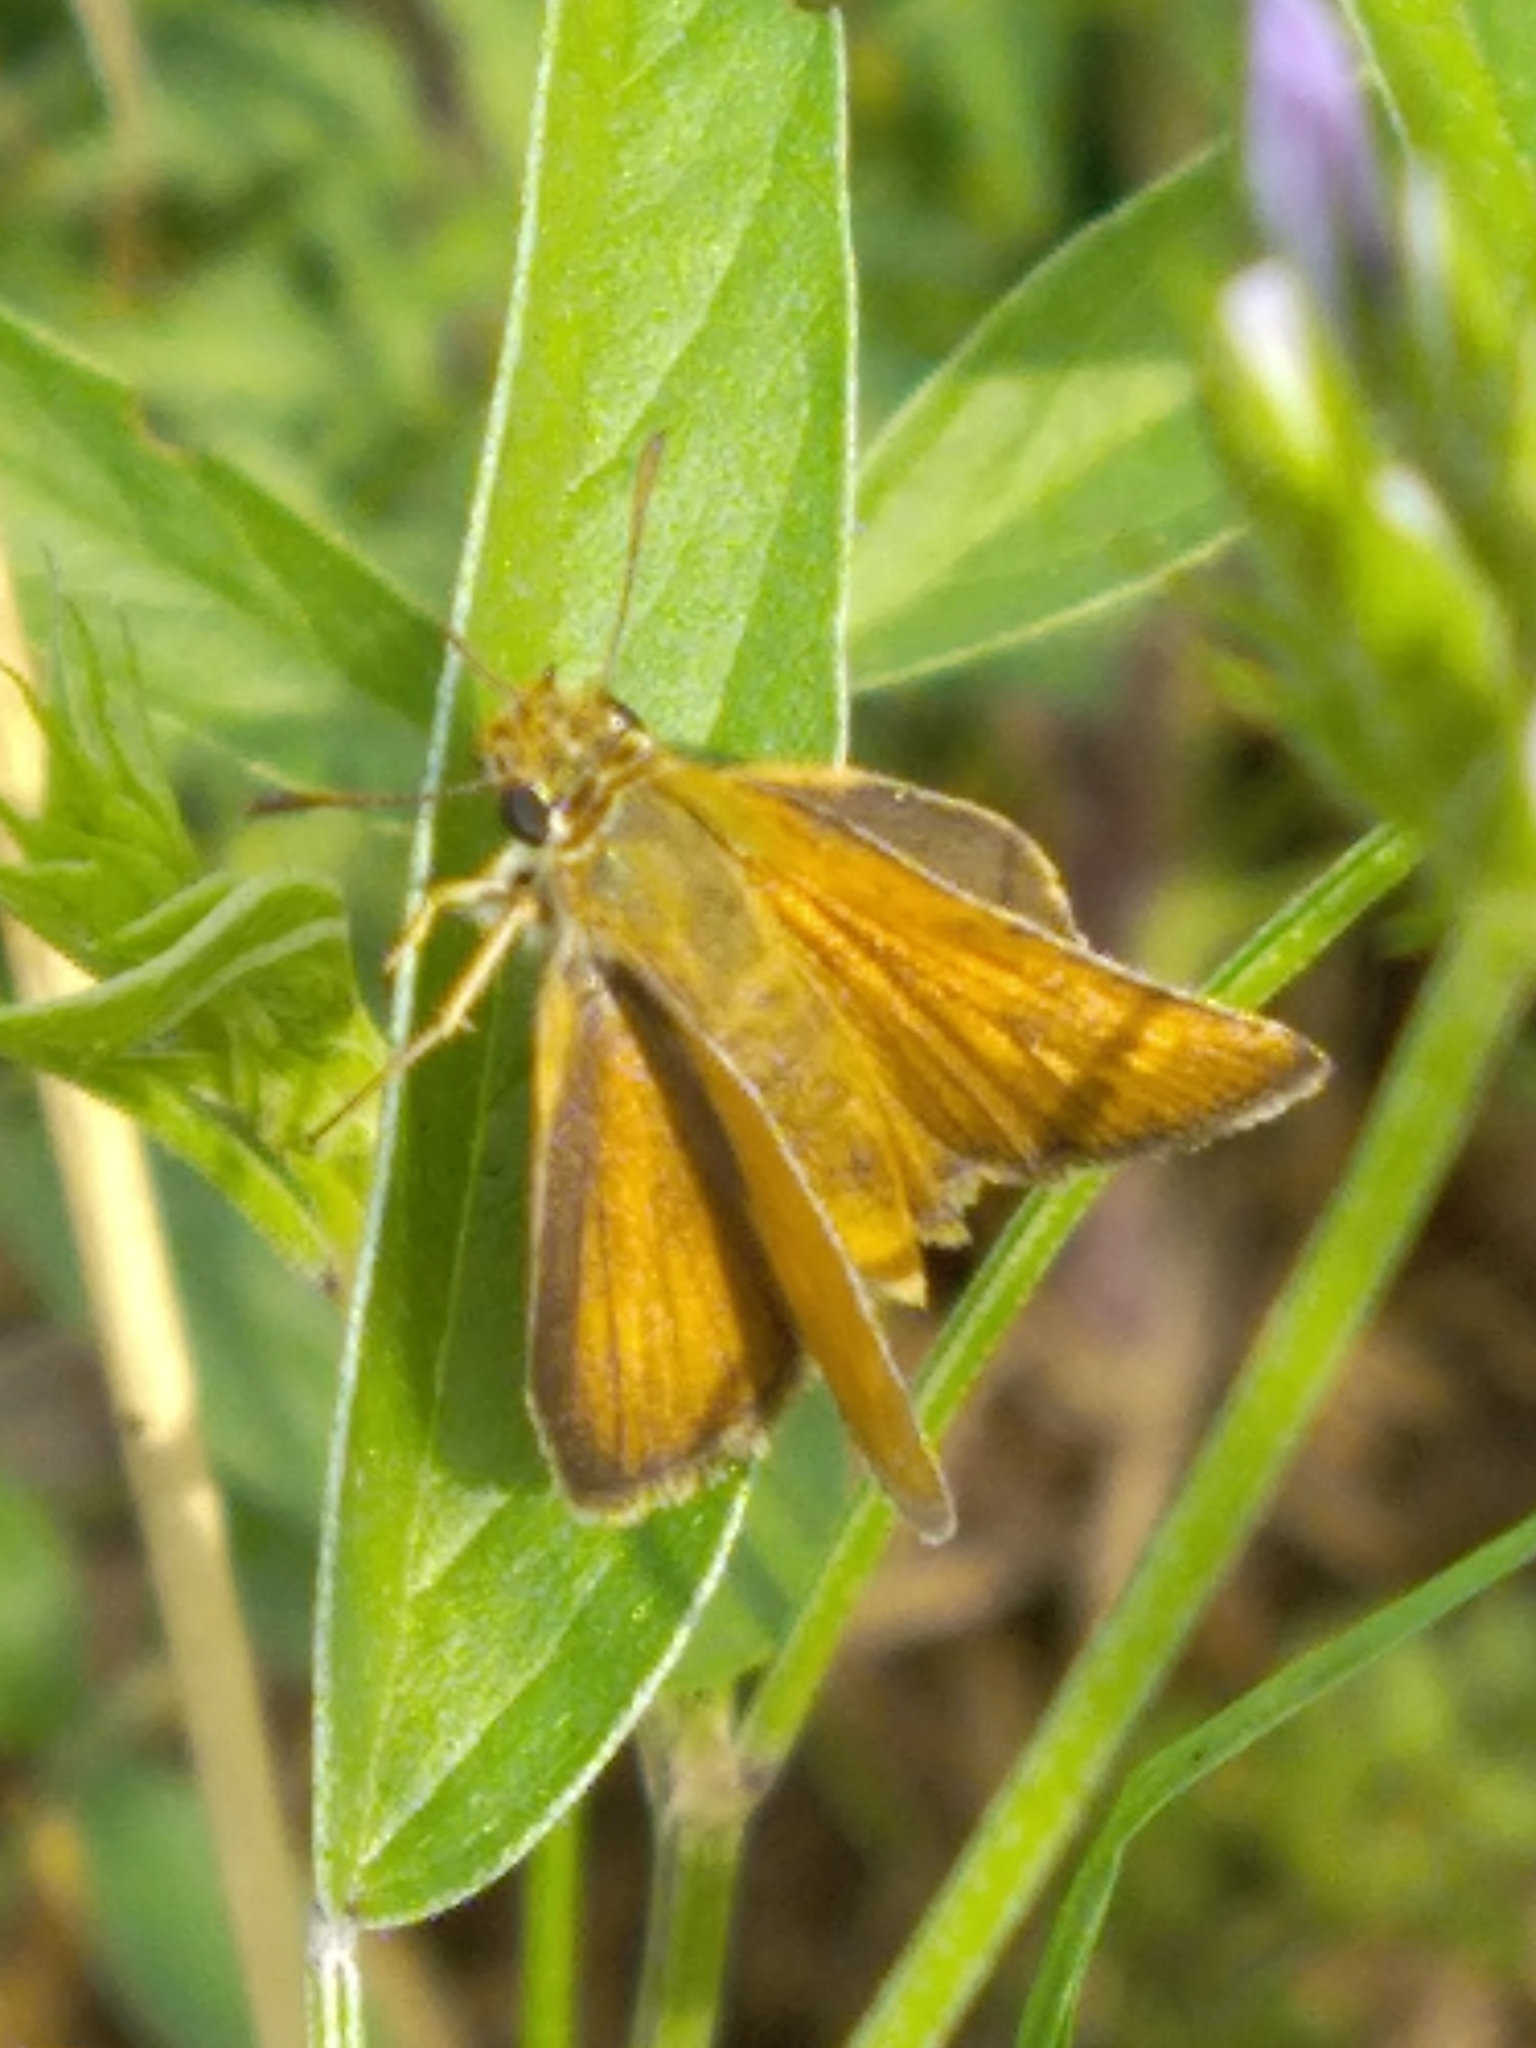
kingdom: Animalia
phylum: Arthropoda
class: Insecta
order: Lepidoptera
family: Hesperiidae
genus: Thymelicus
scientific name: Thymelicus acteon
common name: Lulworth skipper
